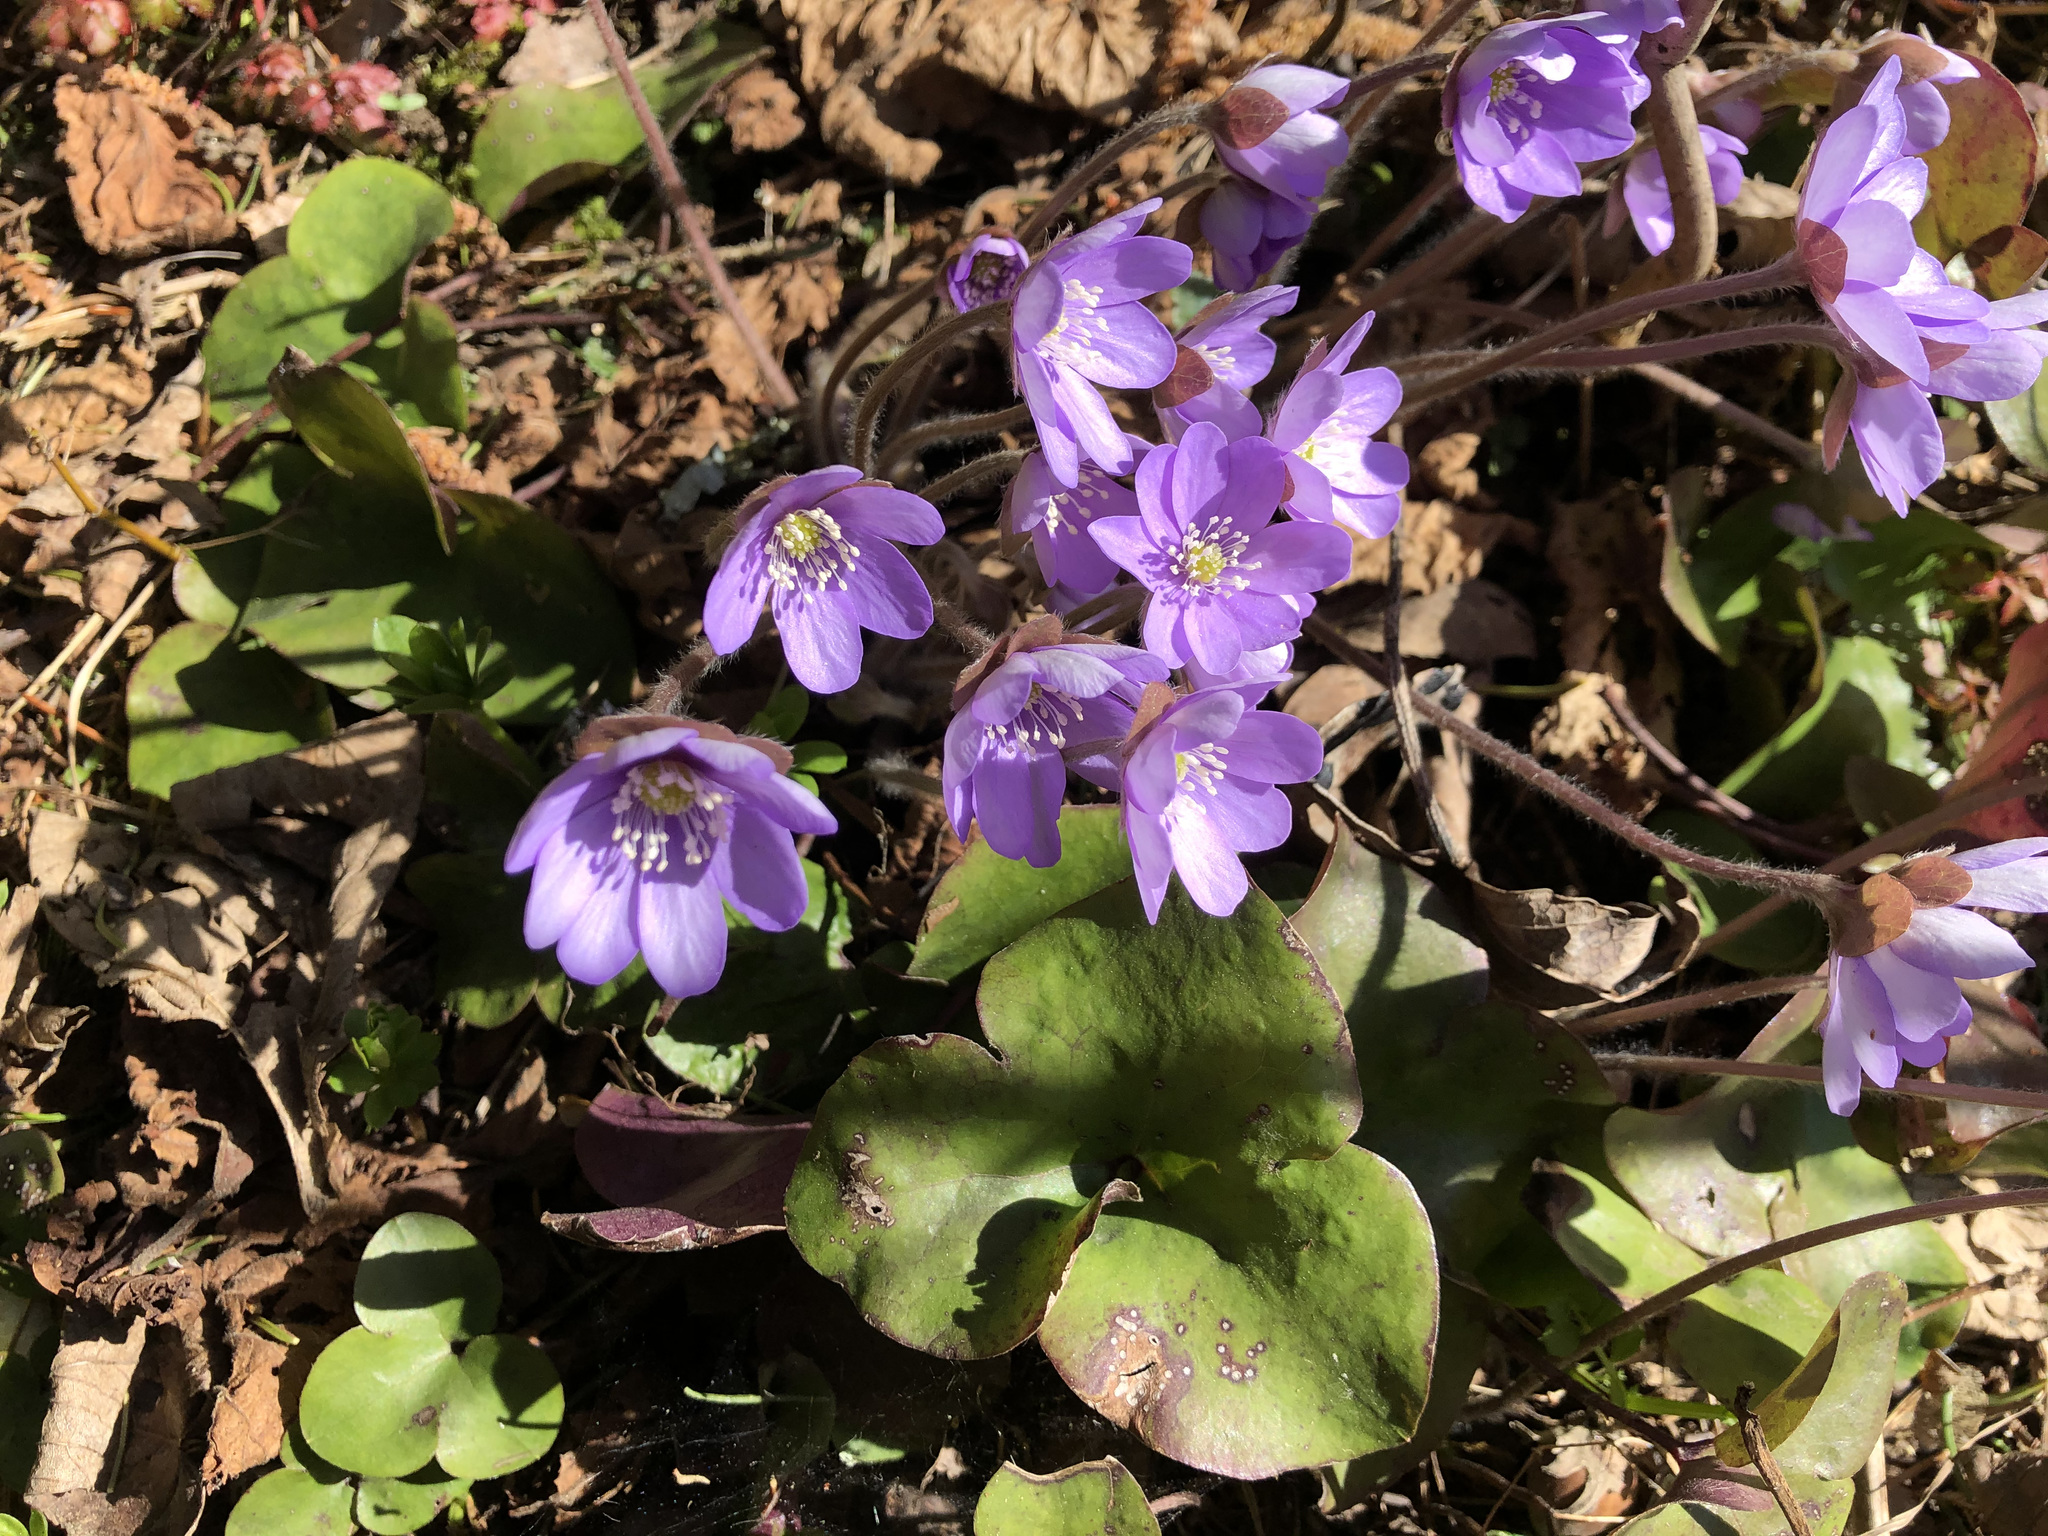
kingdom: Plantae
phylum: Tracheophyta
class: Magnoliopsida
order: Ranunculales
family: Ranunculaceae
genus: Hepatica
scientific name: Hepatica nobilis
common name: Liverleaf
